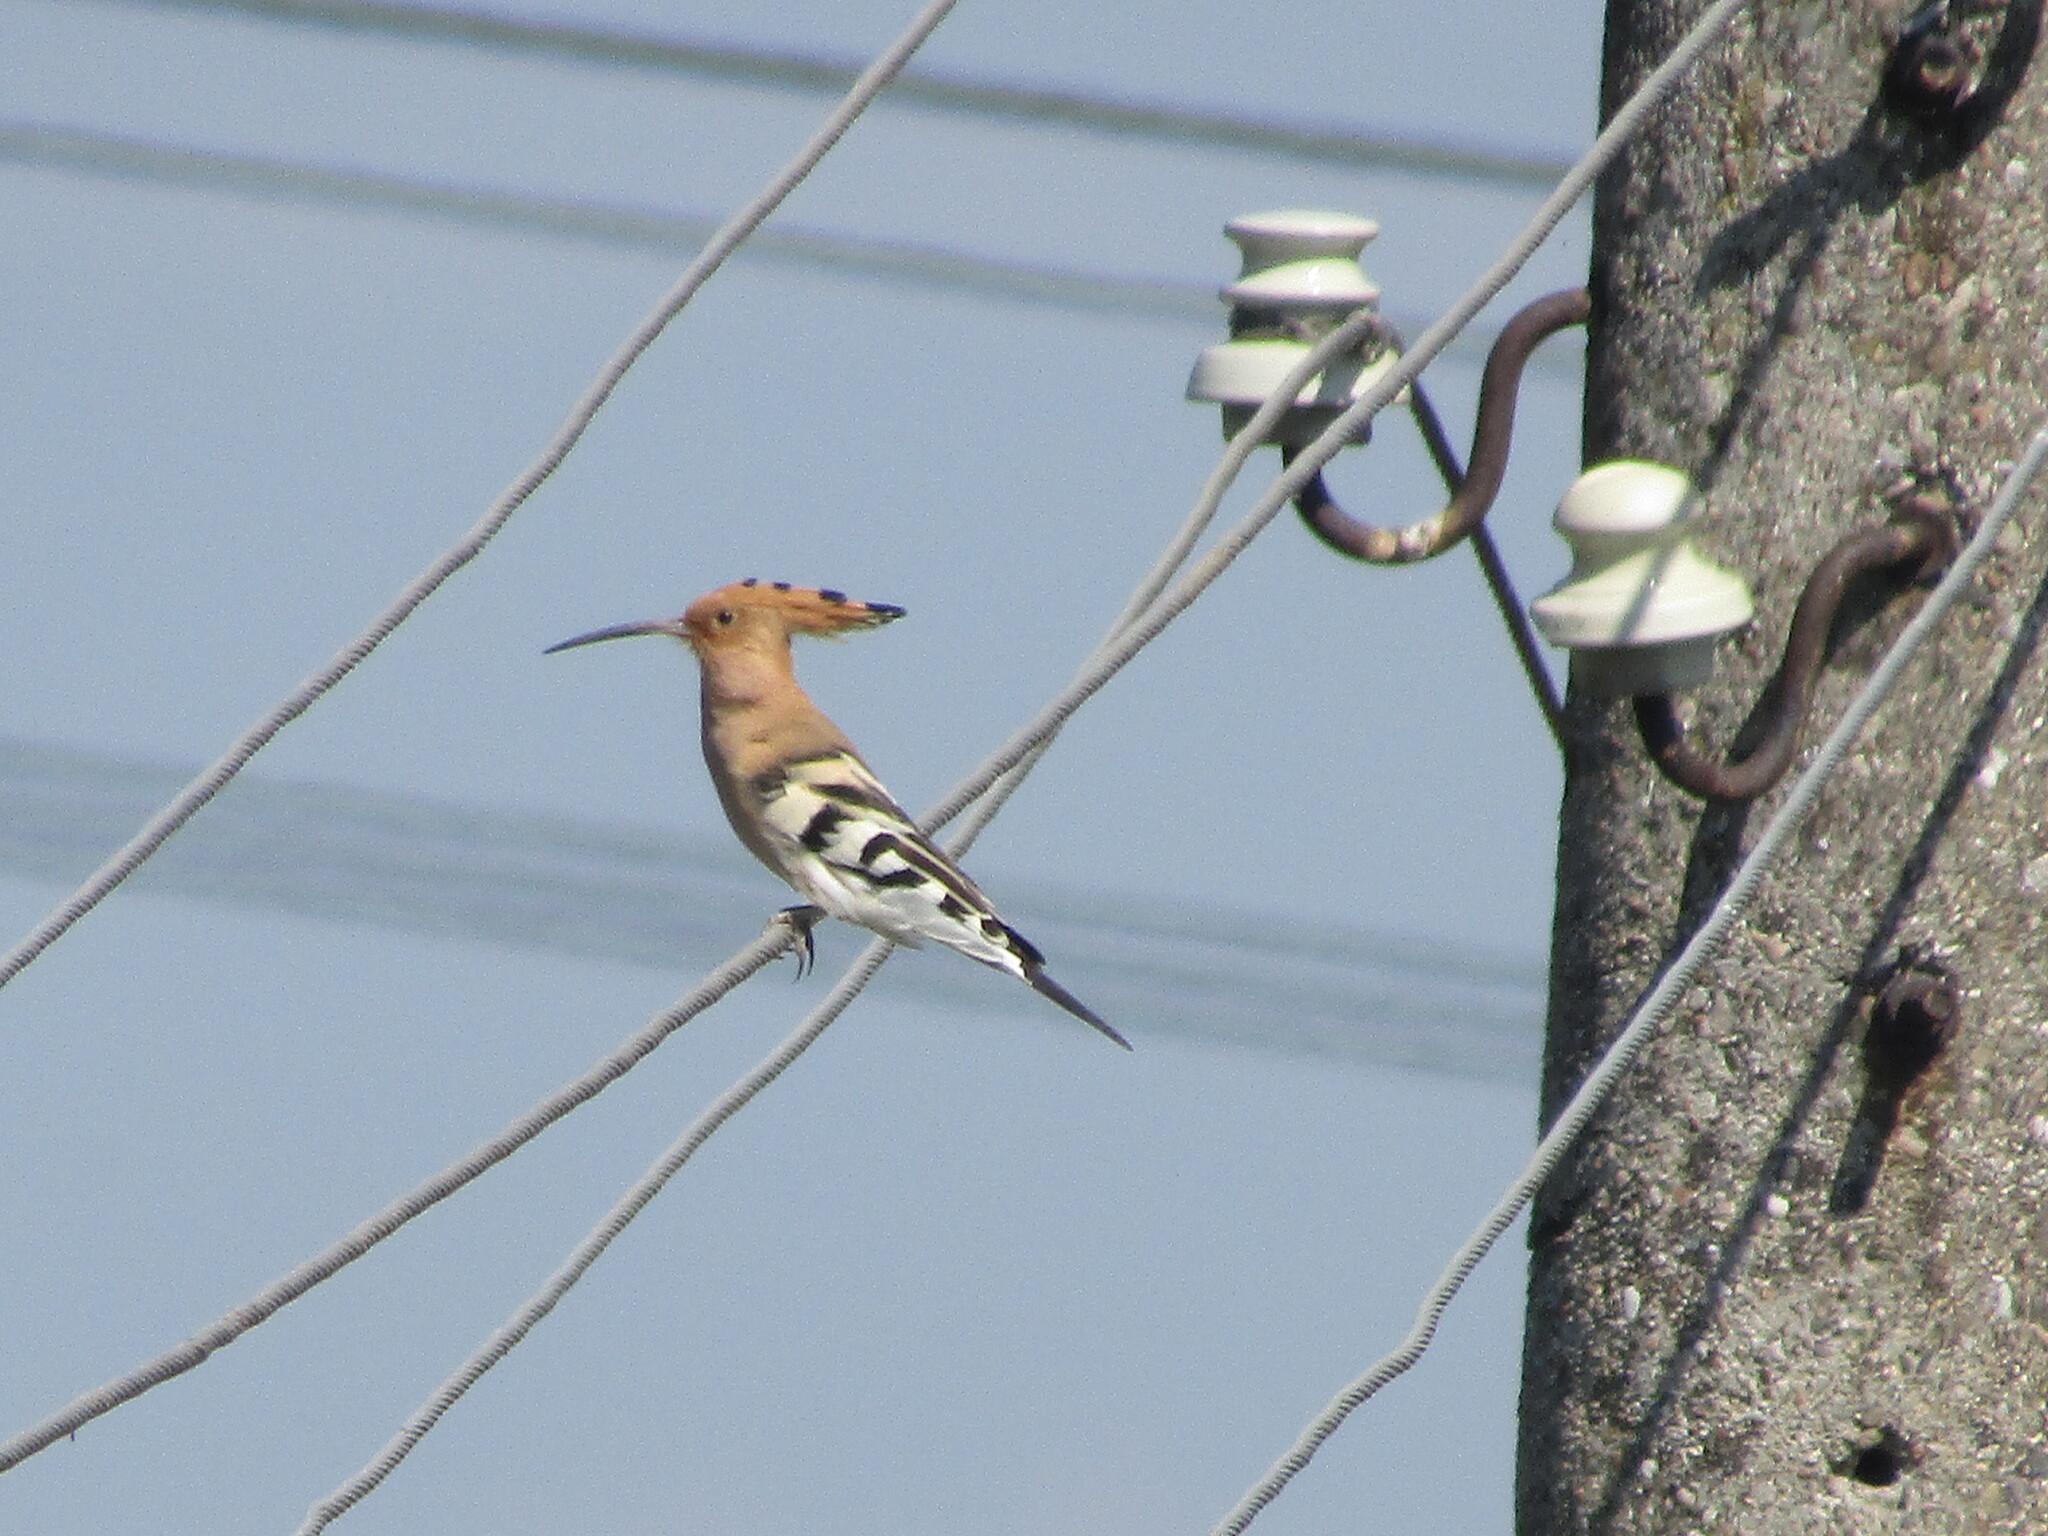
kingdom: Animalia
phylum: Chordata
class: Aves
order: Bucerotiformes
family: Upupidae
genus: Upupa
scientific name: Upupa epops
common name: Eurasian hoopoe
